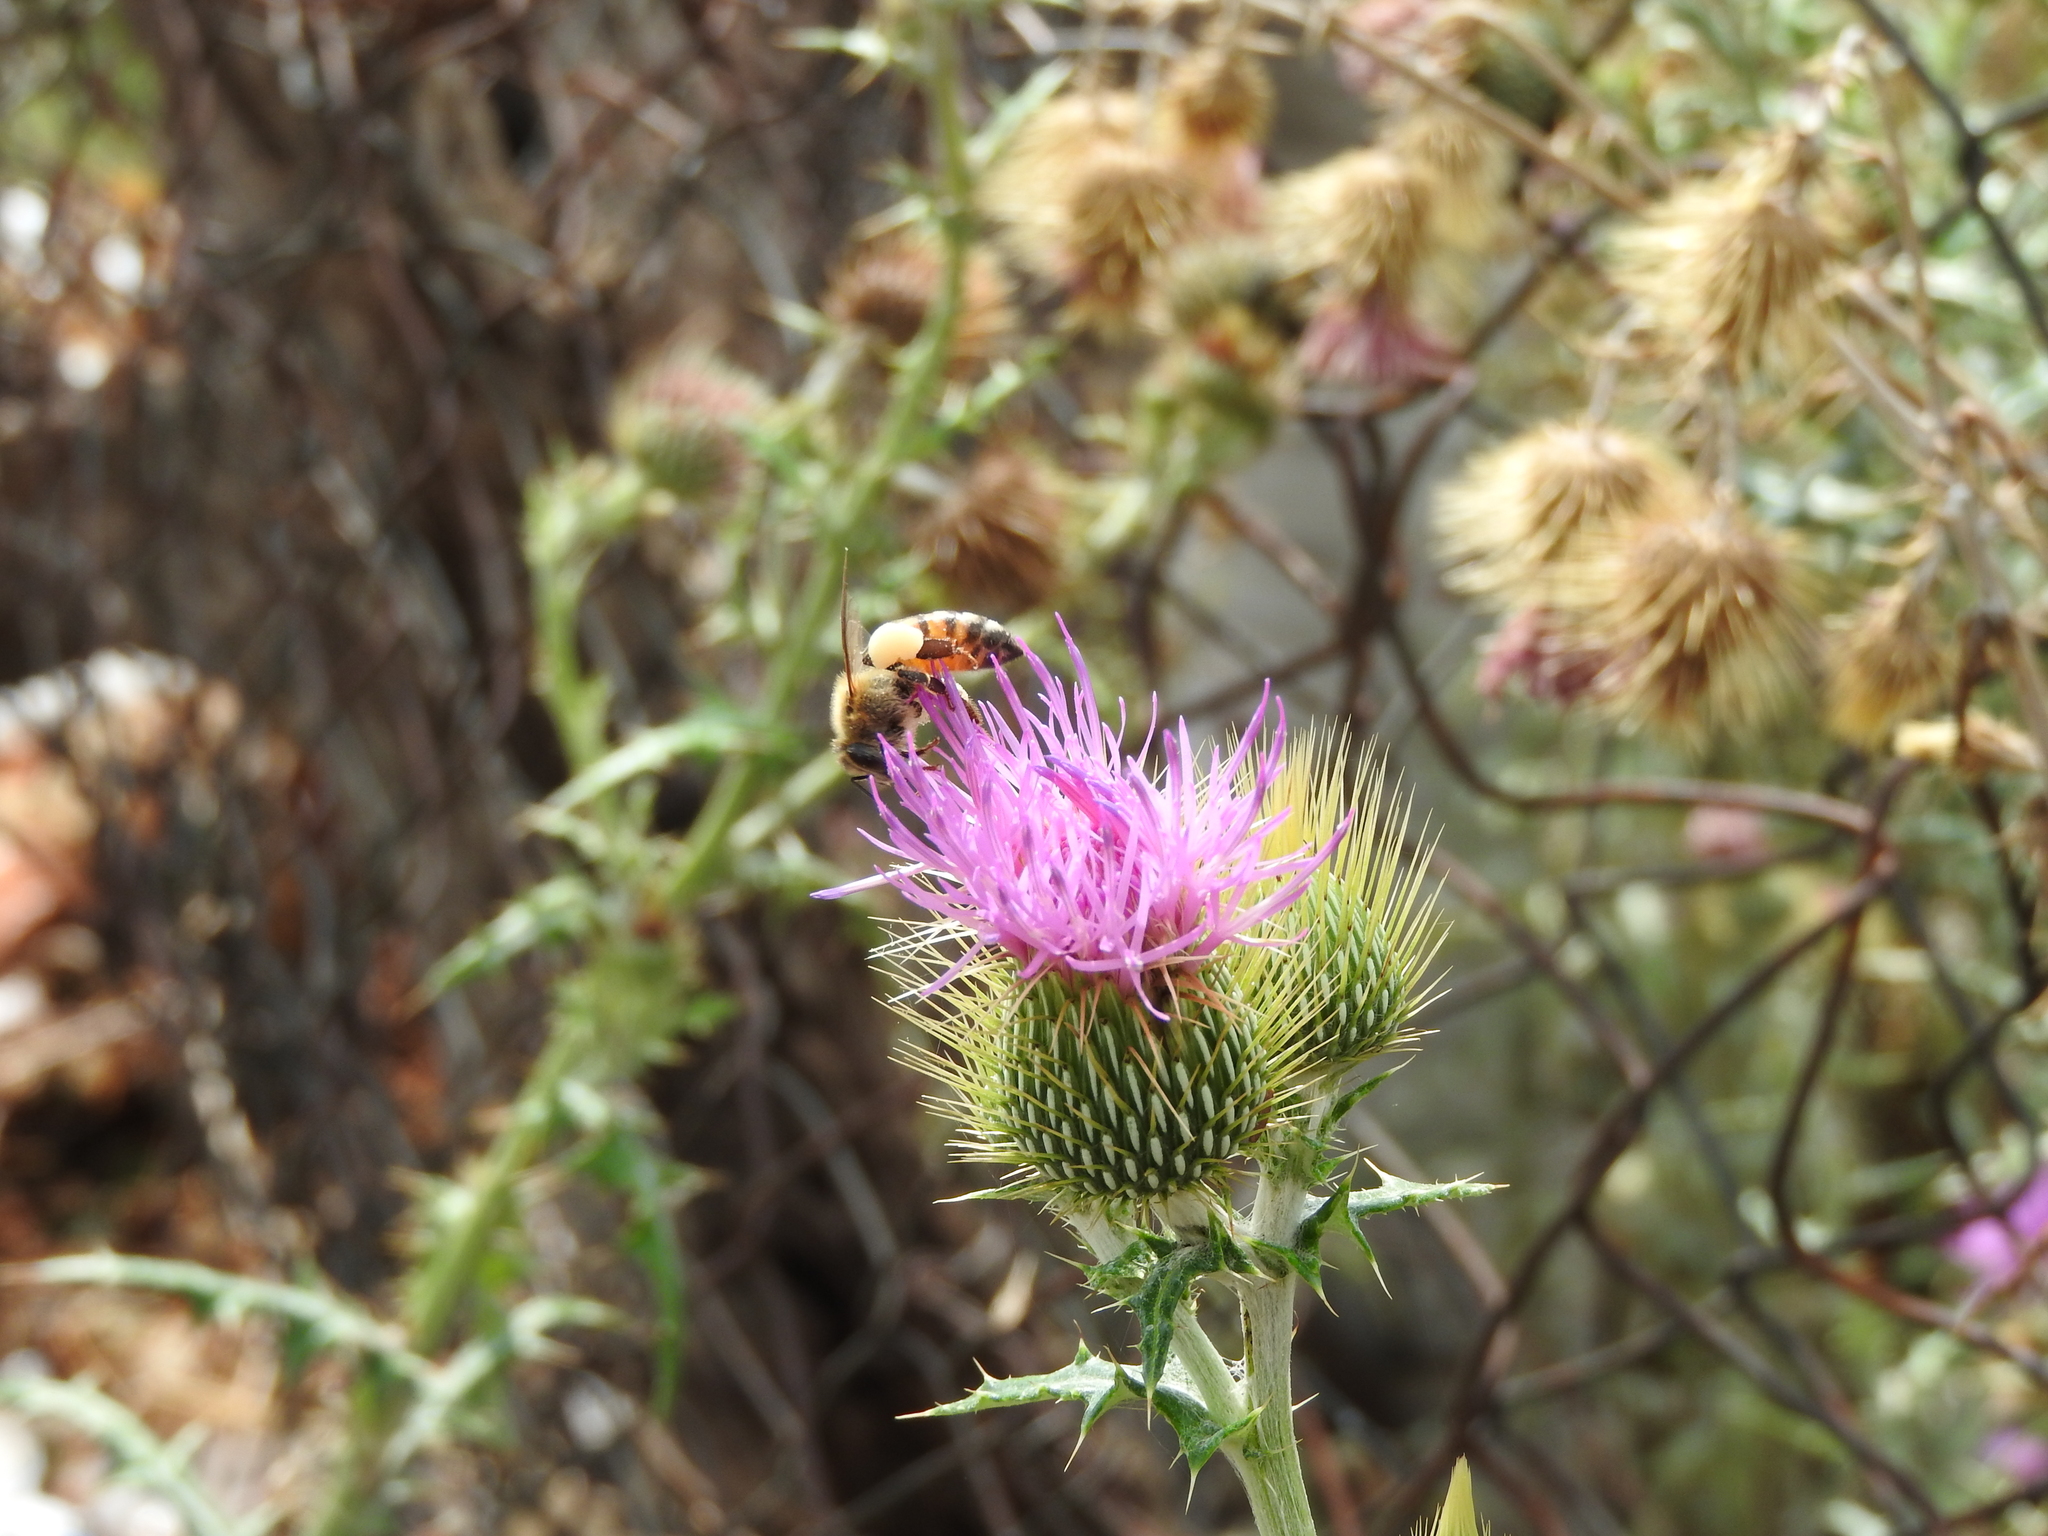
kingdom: Animalia
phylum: Arthropoda
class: Insecta
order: Hymenoptera
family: Apidae
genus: Apis
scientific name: Apis mellifera
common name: Honey bee
